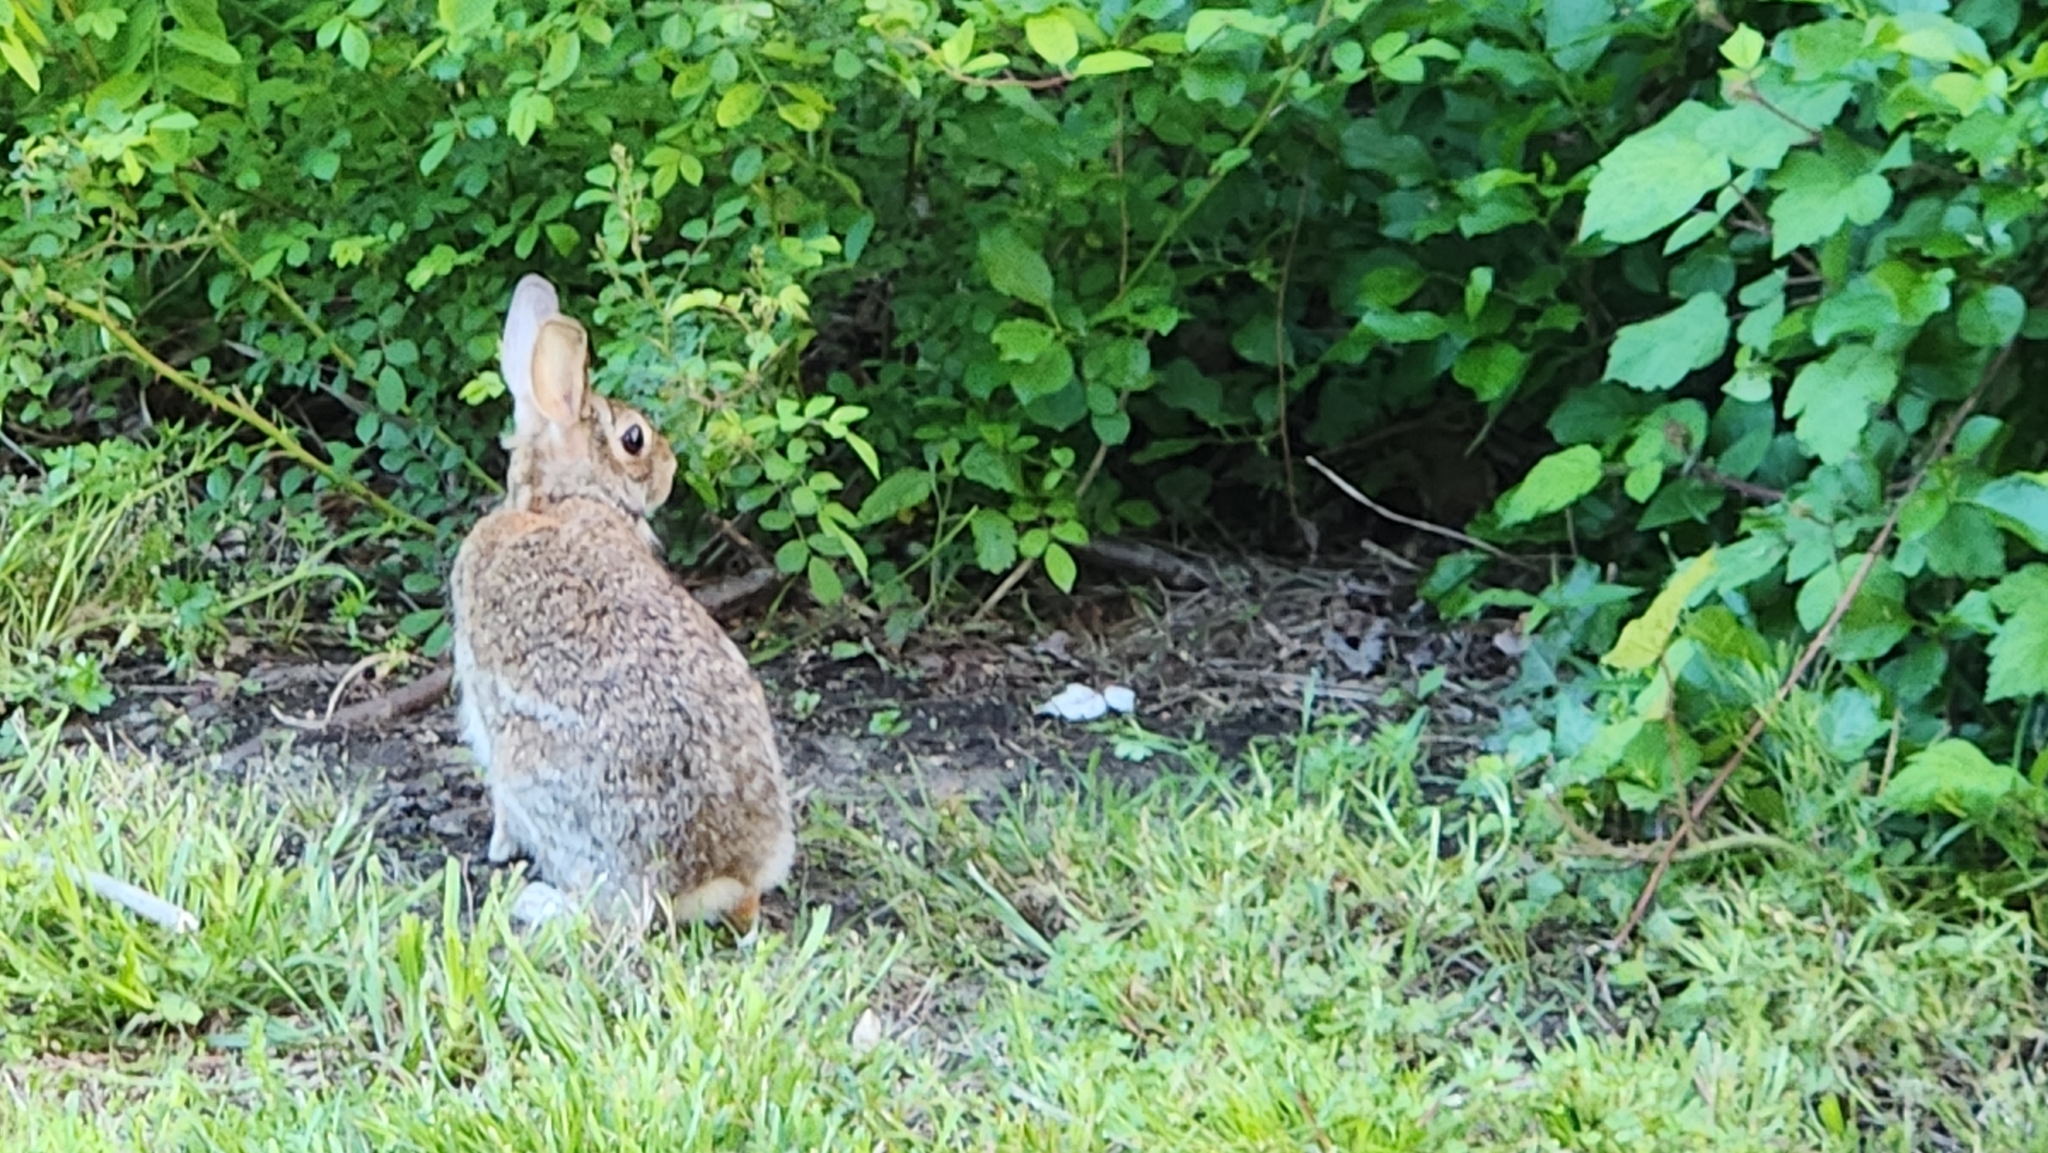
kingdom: Animalia
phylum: Chordata
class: Mammalia
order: Lagomorpha
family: Leporidae
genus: Sylvilagus
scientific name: Sylvilagus floridanus
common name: Eastern cottontail
